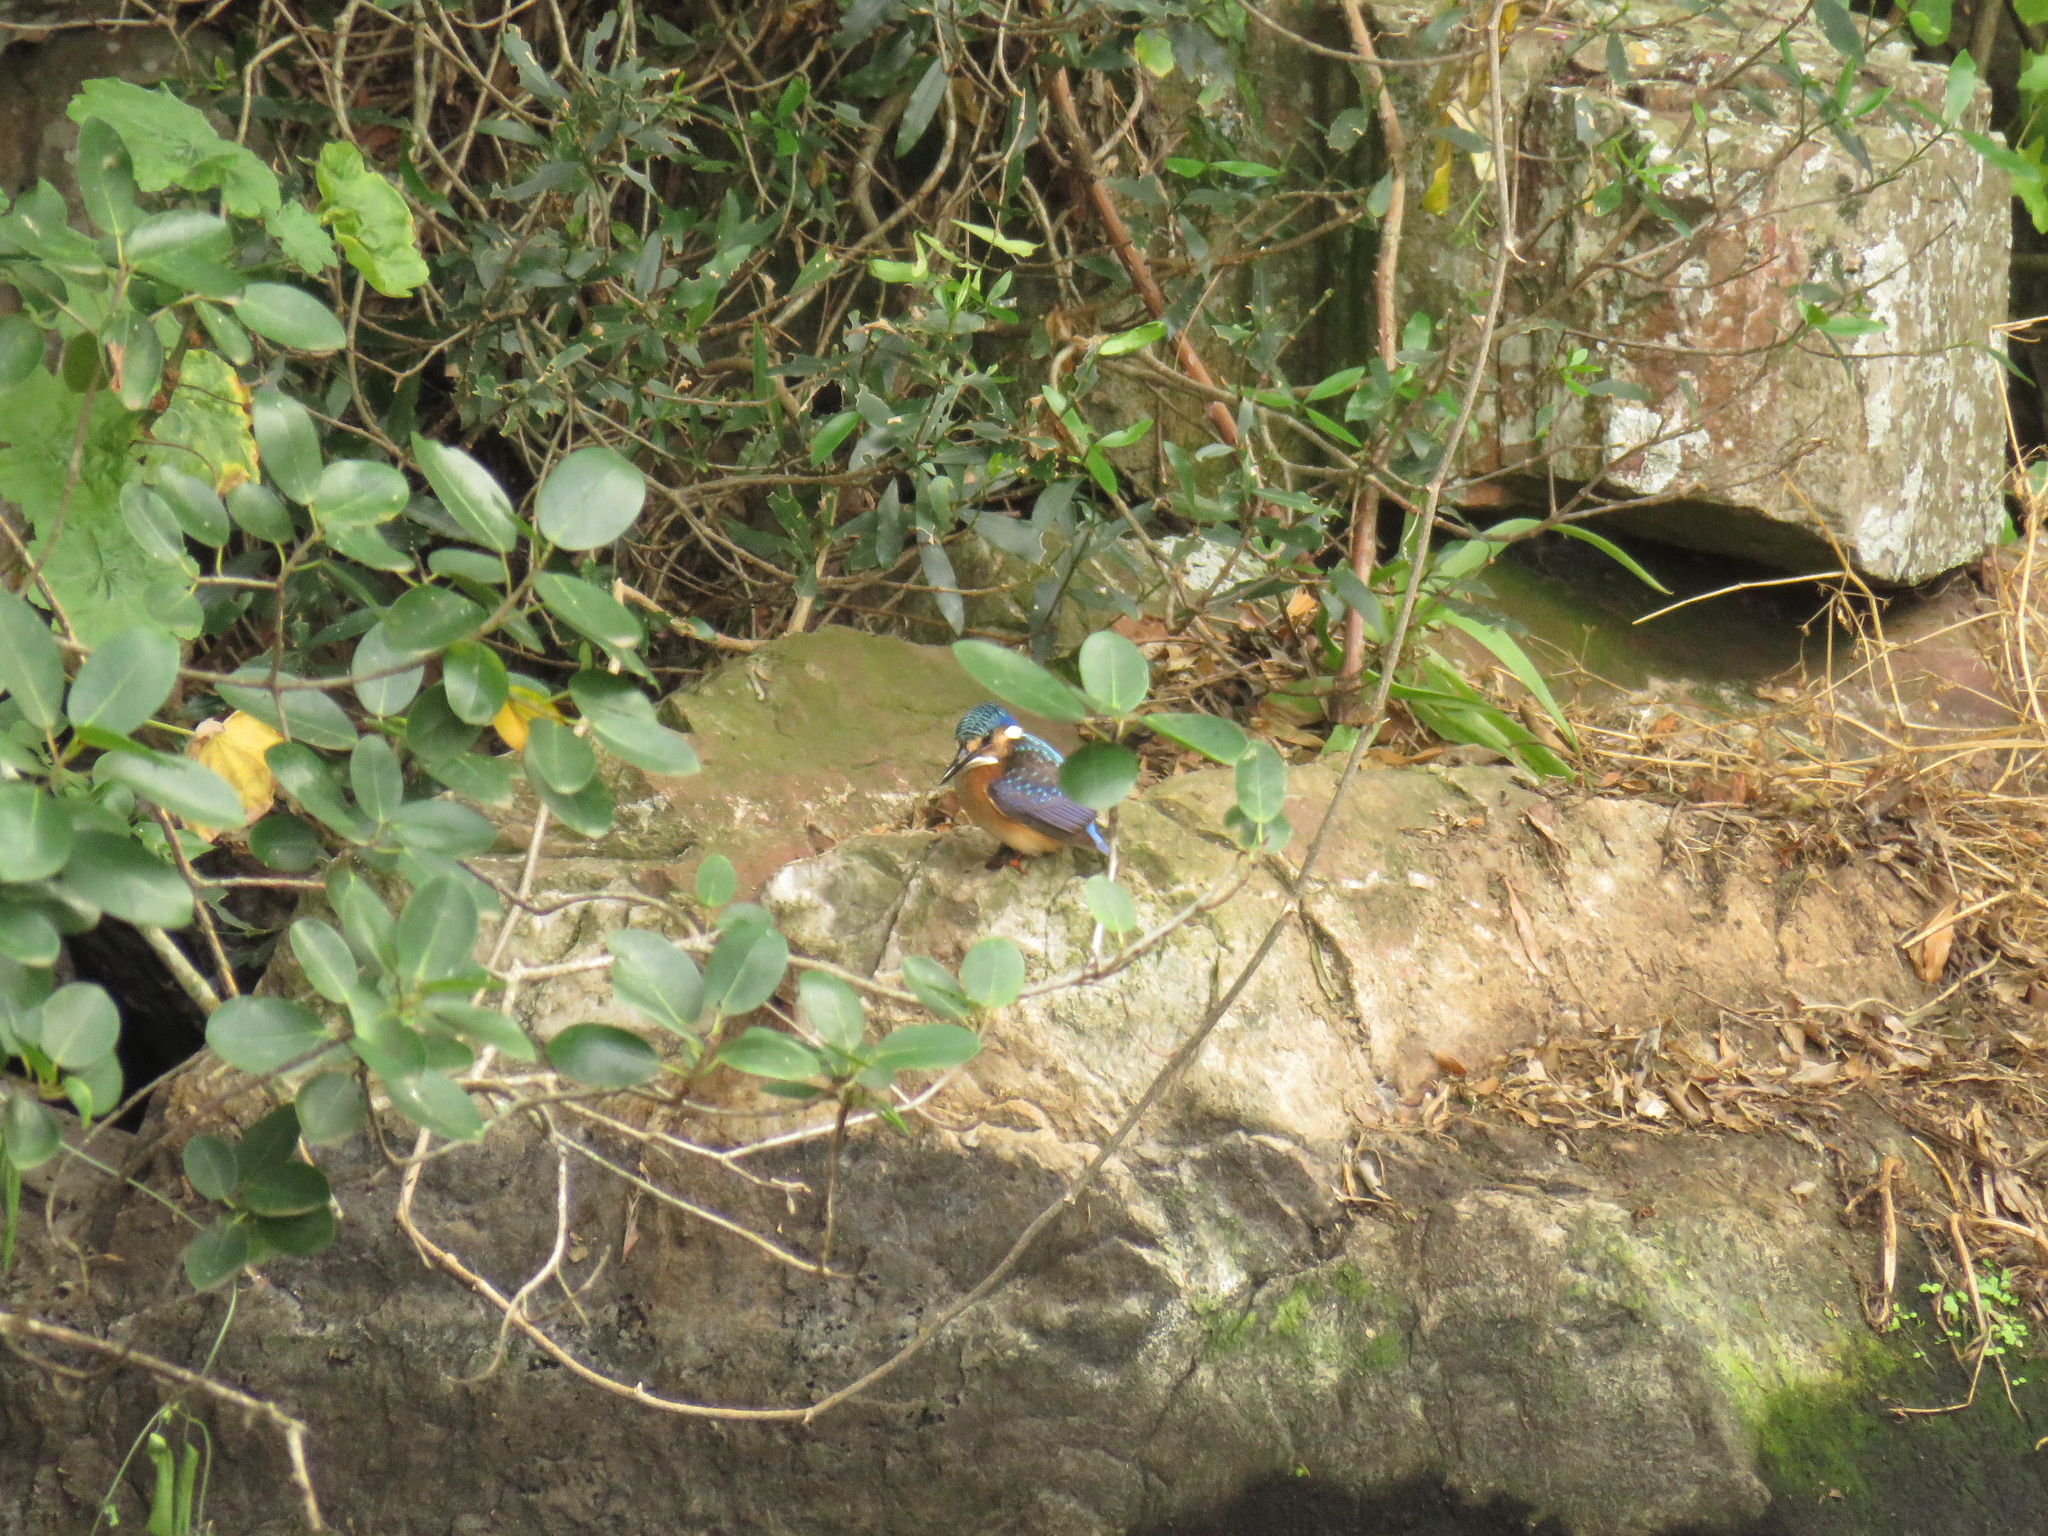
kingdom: Animalia
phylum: Chordata
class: Aves
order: Coraciiformes
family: Alcedinidae
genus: Corythornis
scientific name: Corythornis cristatus
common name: Malachite kingfisher
